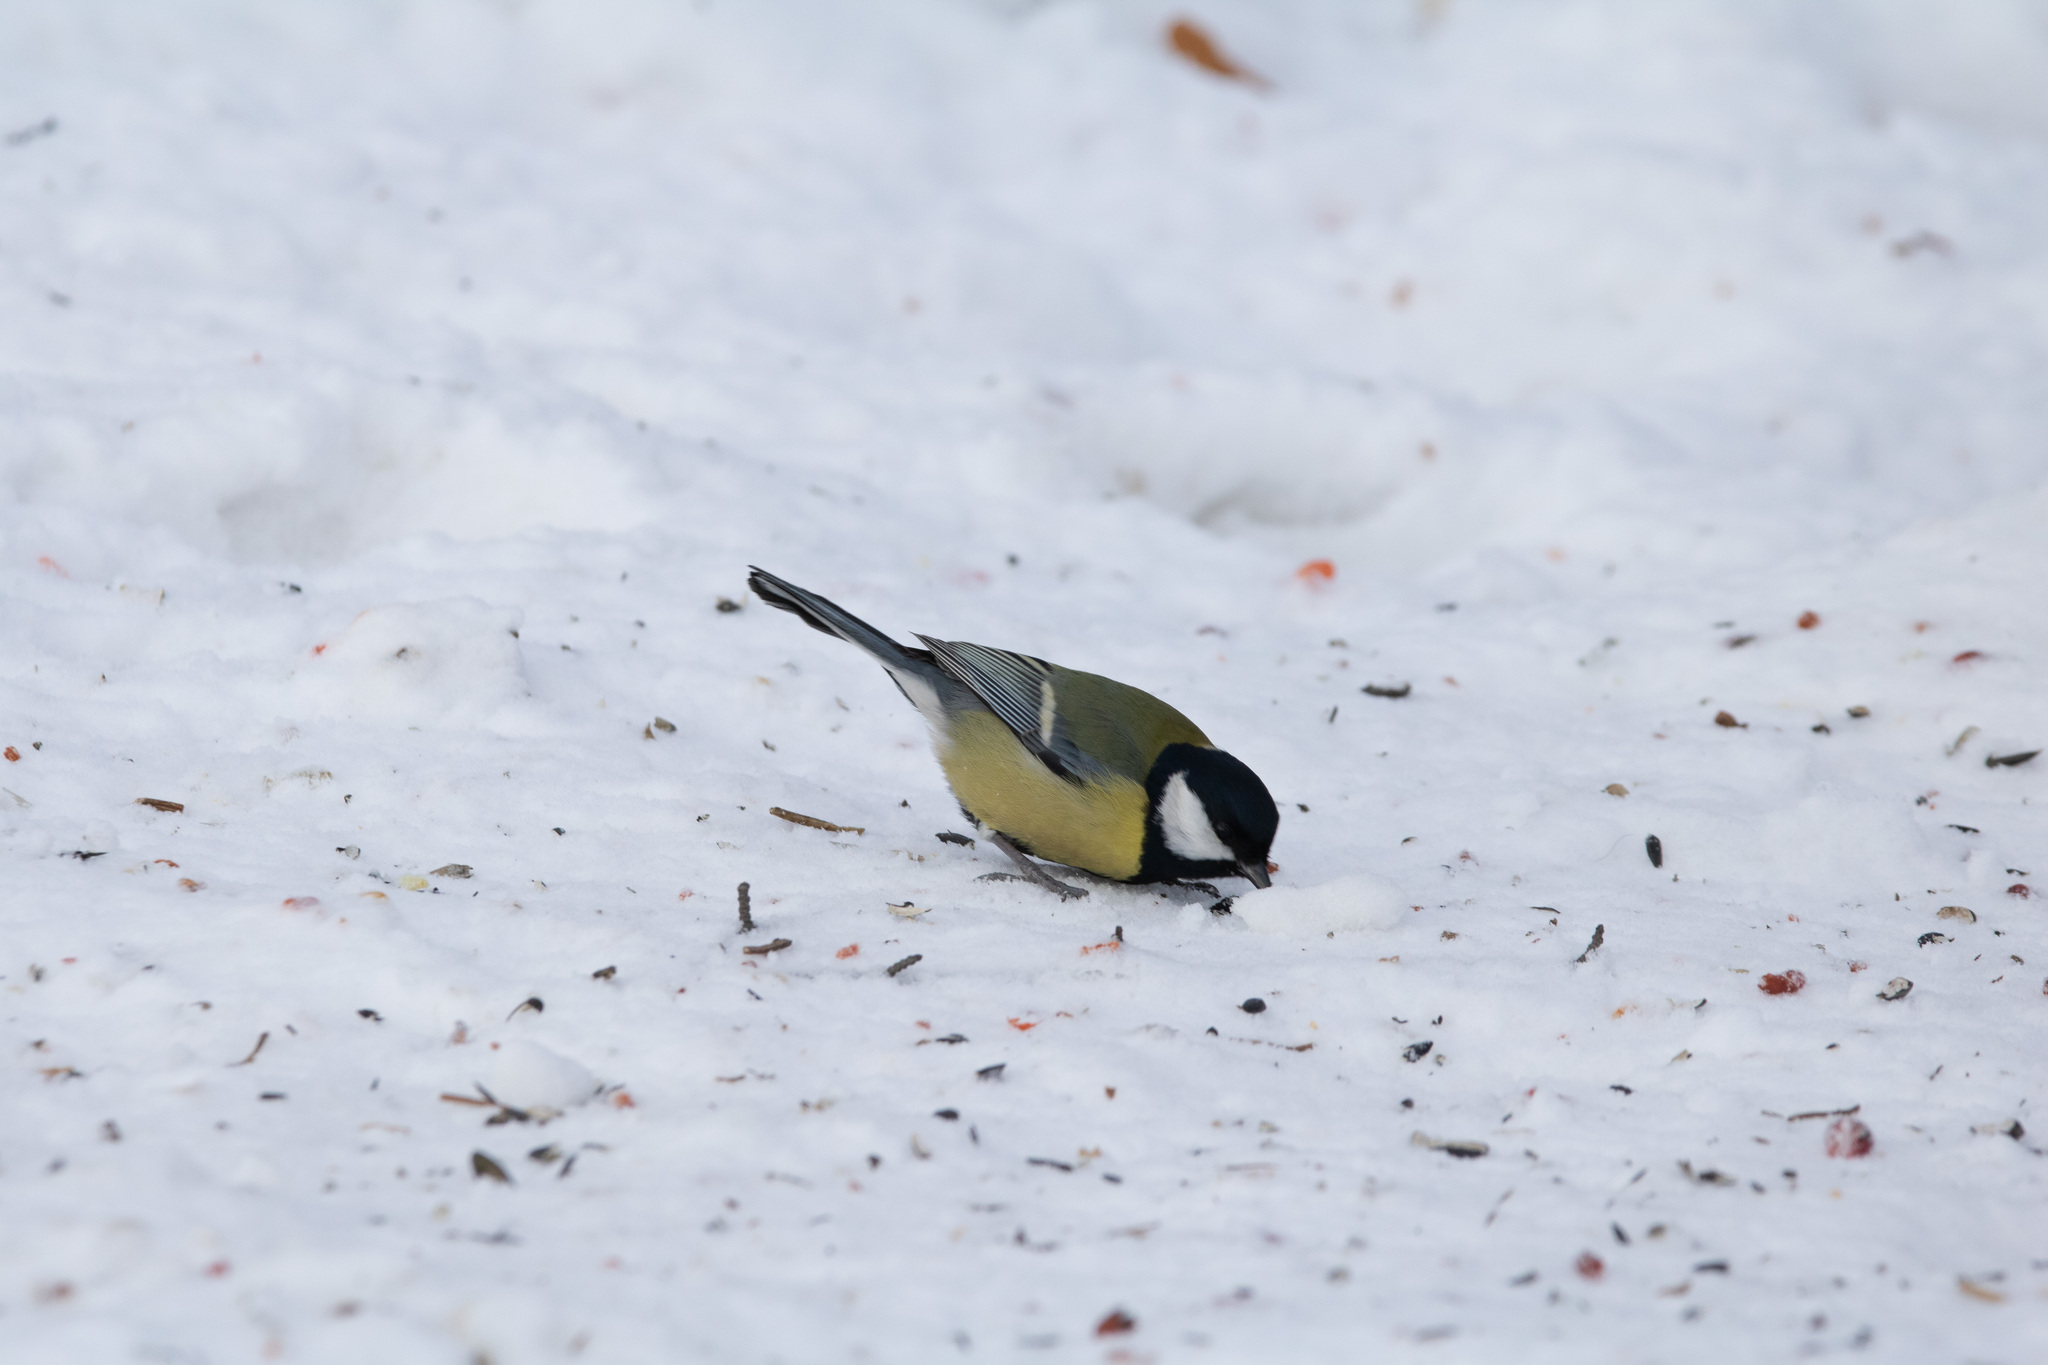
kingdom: Animalia
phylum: Chordata
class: Aves
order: Passeriformes
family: Paridae
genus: Parus
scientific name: Parus major
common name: Great tit
